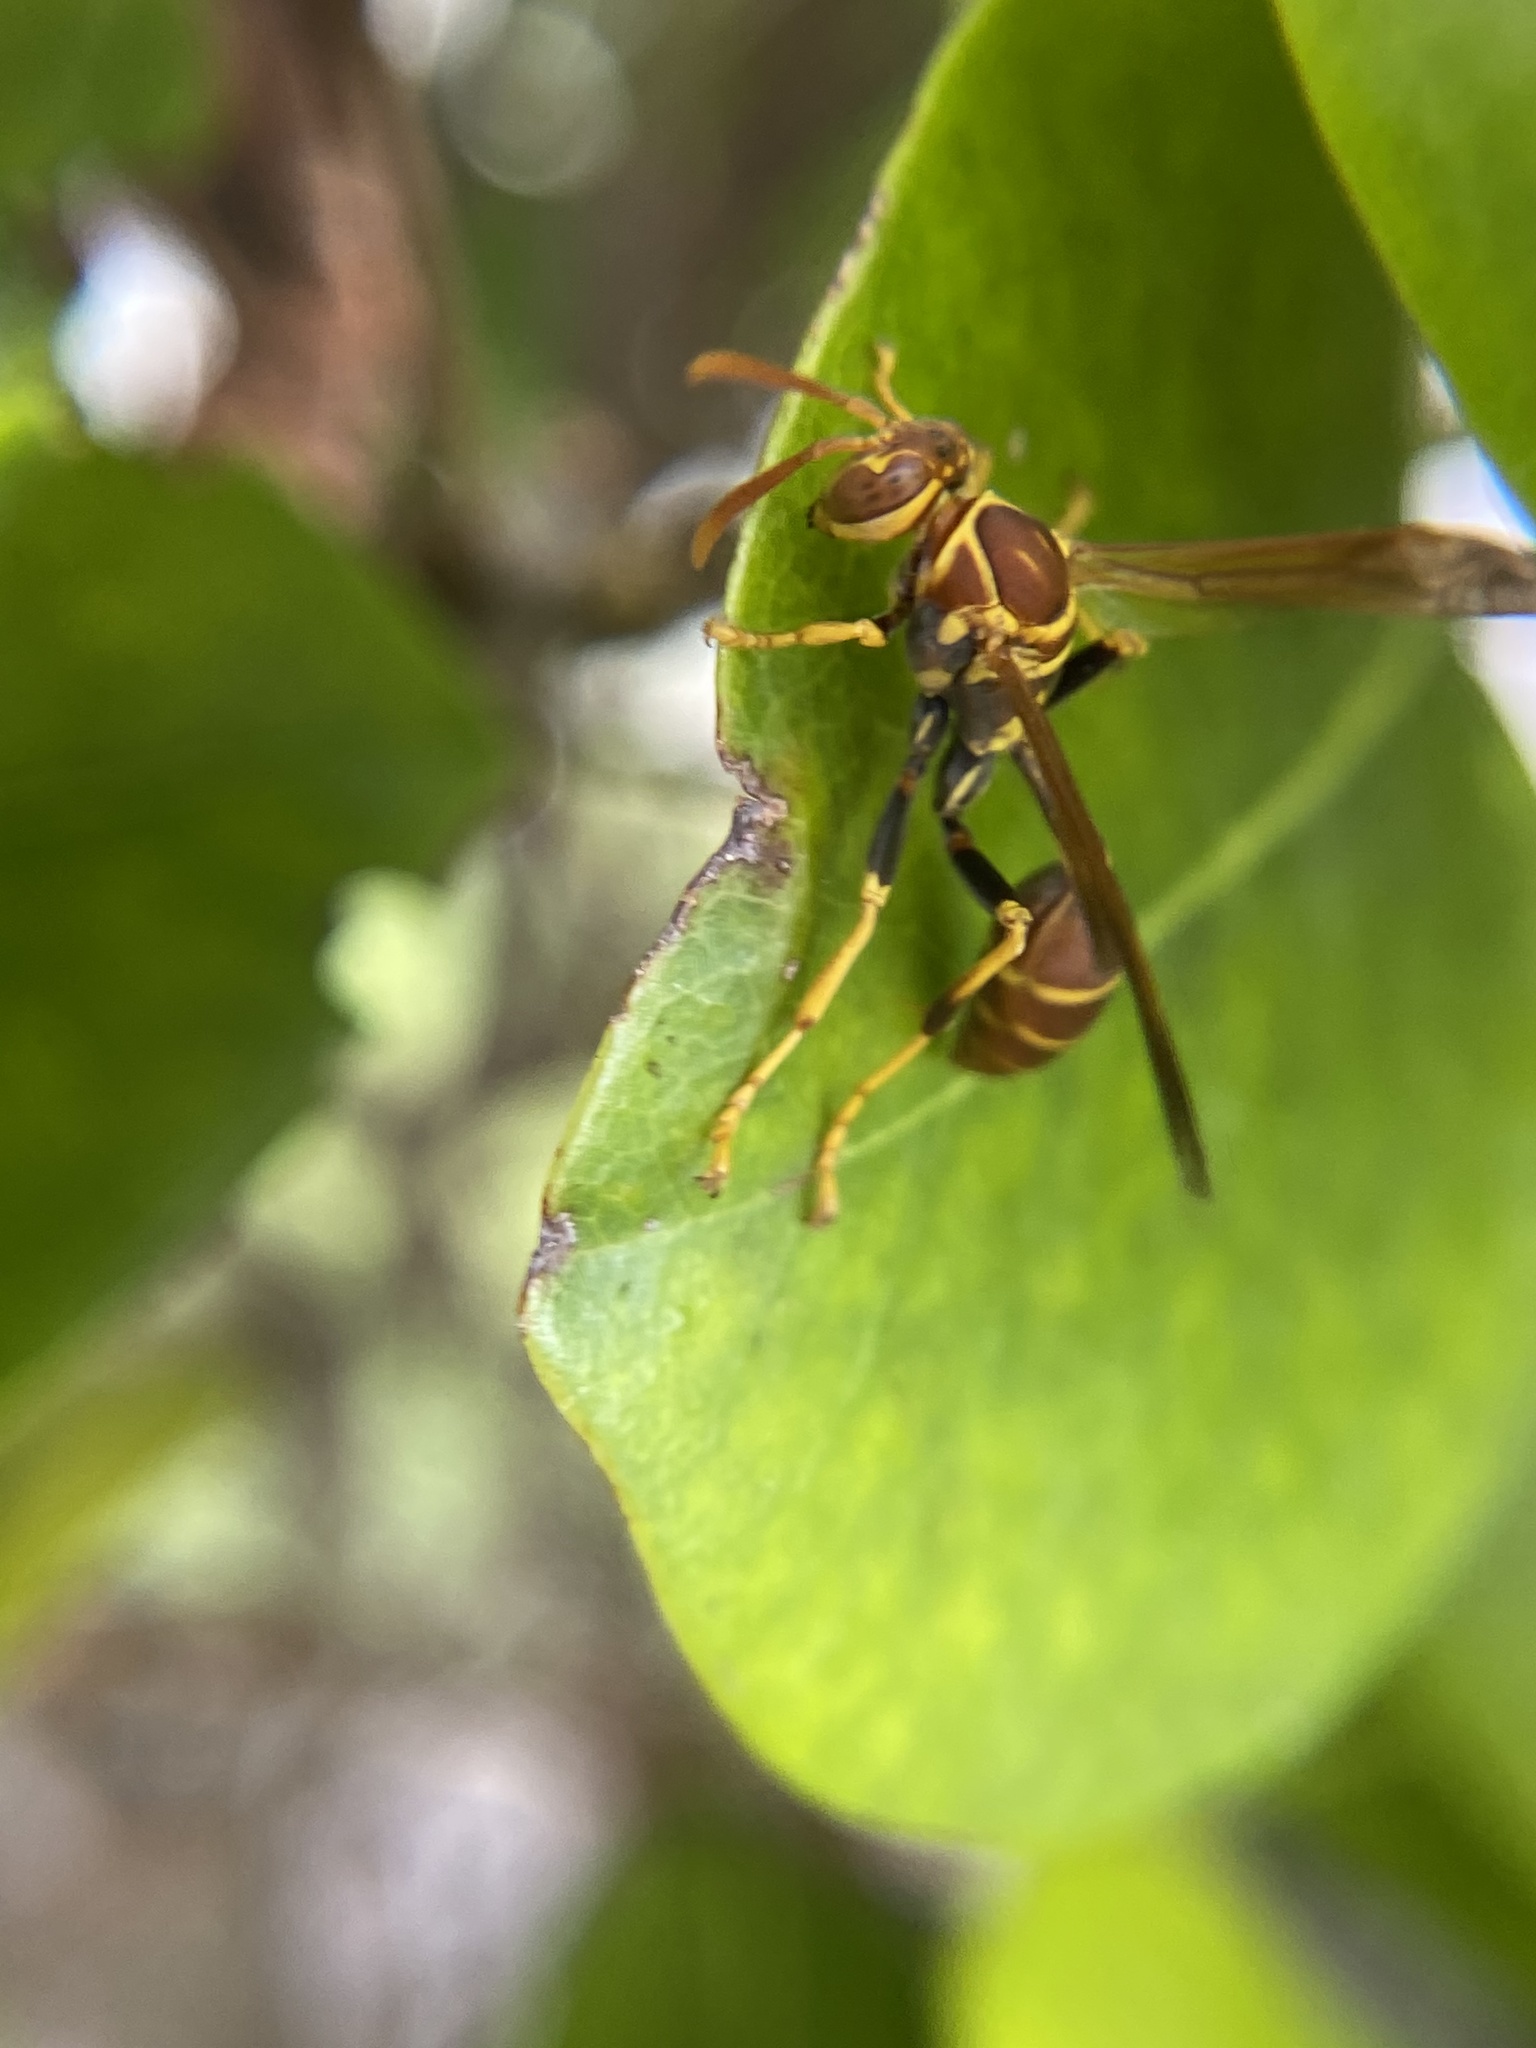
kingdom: Animalia
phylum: Arthropoda
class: Insecta
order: Hymenoptera
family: Vespidae
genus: Mischocyttarus
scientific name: Mischocyttarus mexicanus
